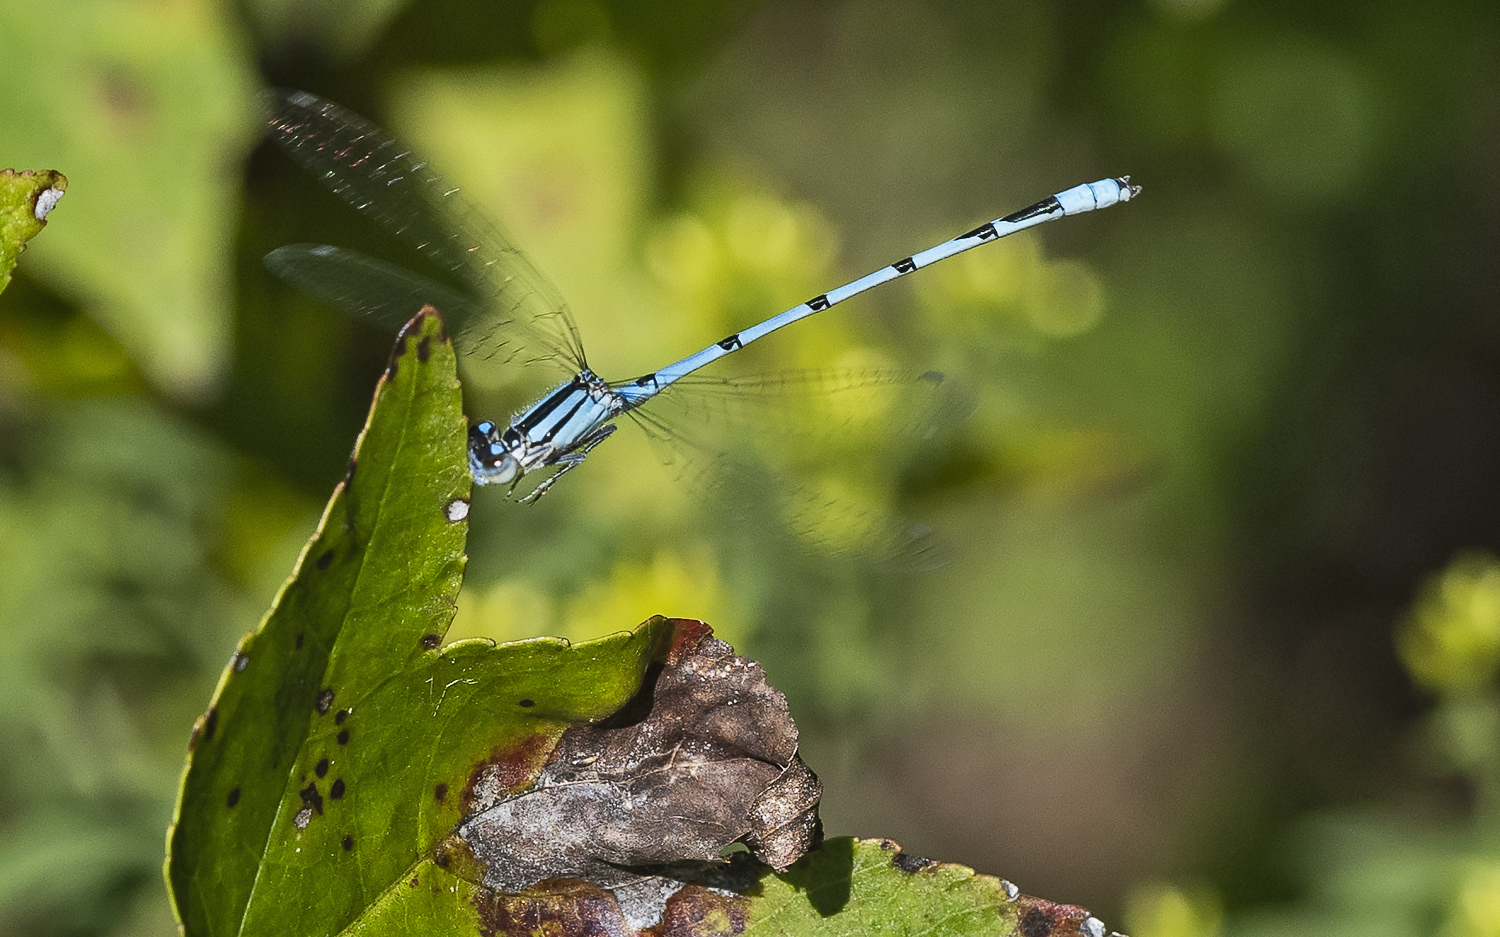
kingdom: Animalia
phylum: Arthropoda
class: Insecta
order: Odonata
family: Coenagrionidae
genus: Enallagma
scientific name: Enallagma civile
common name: Damselfly
